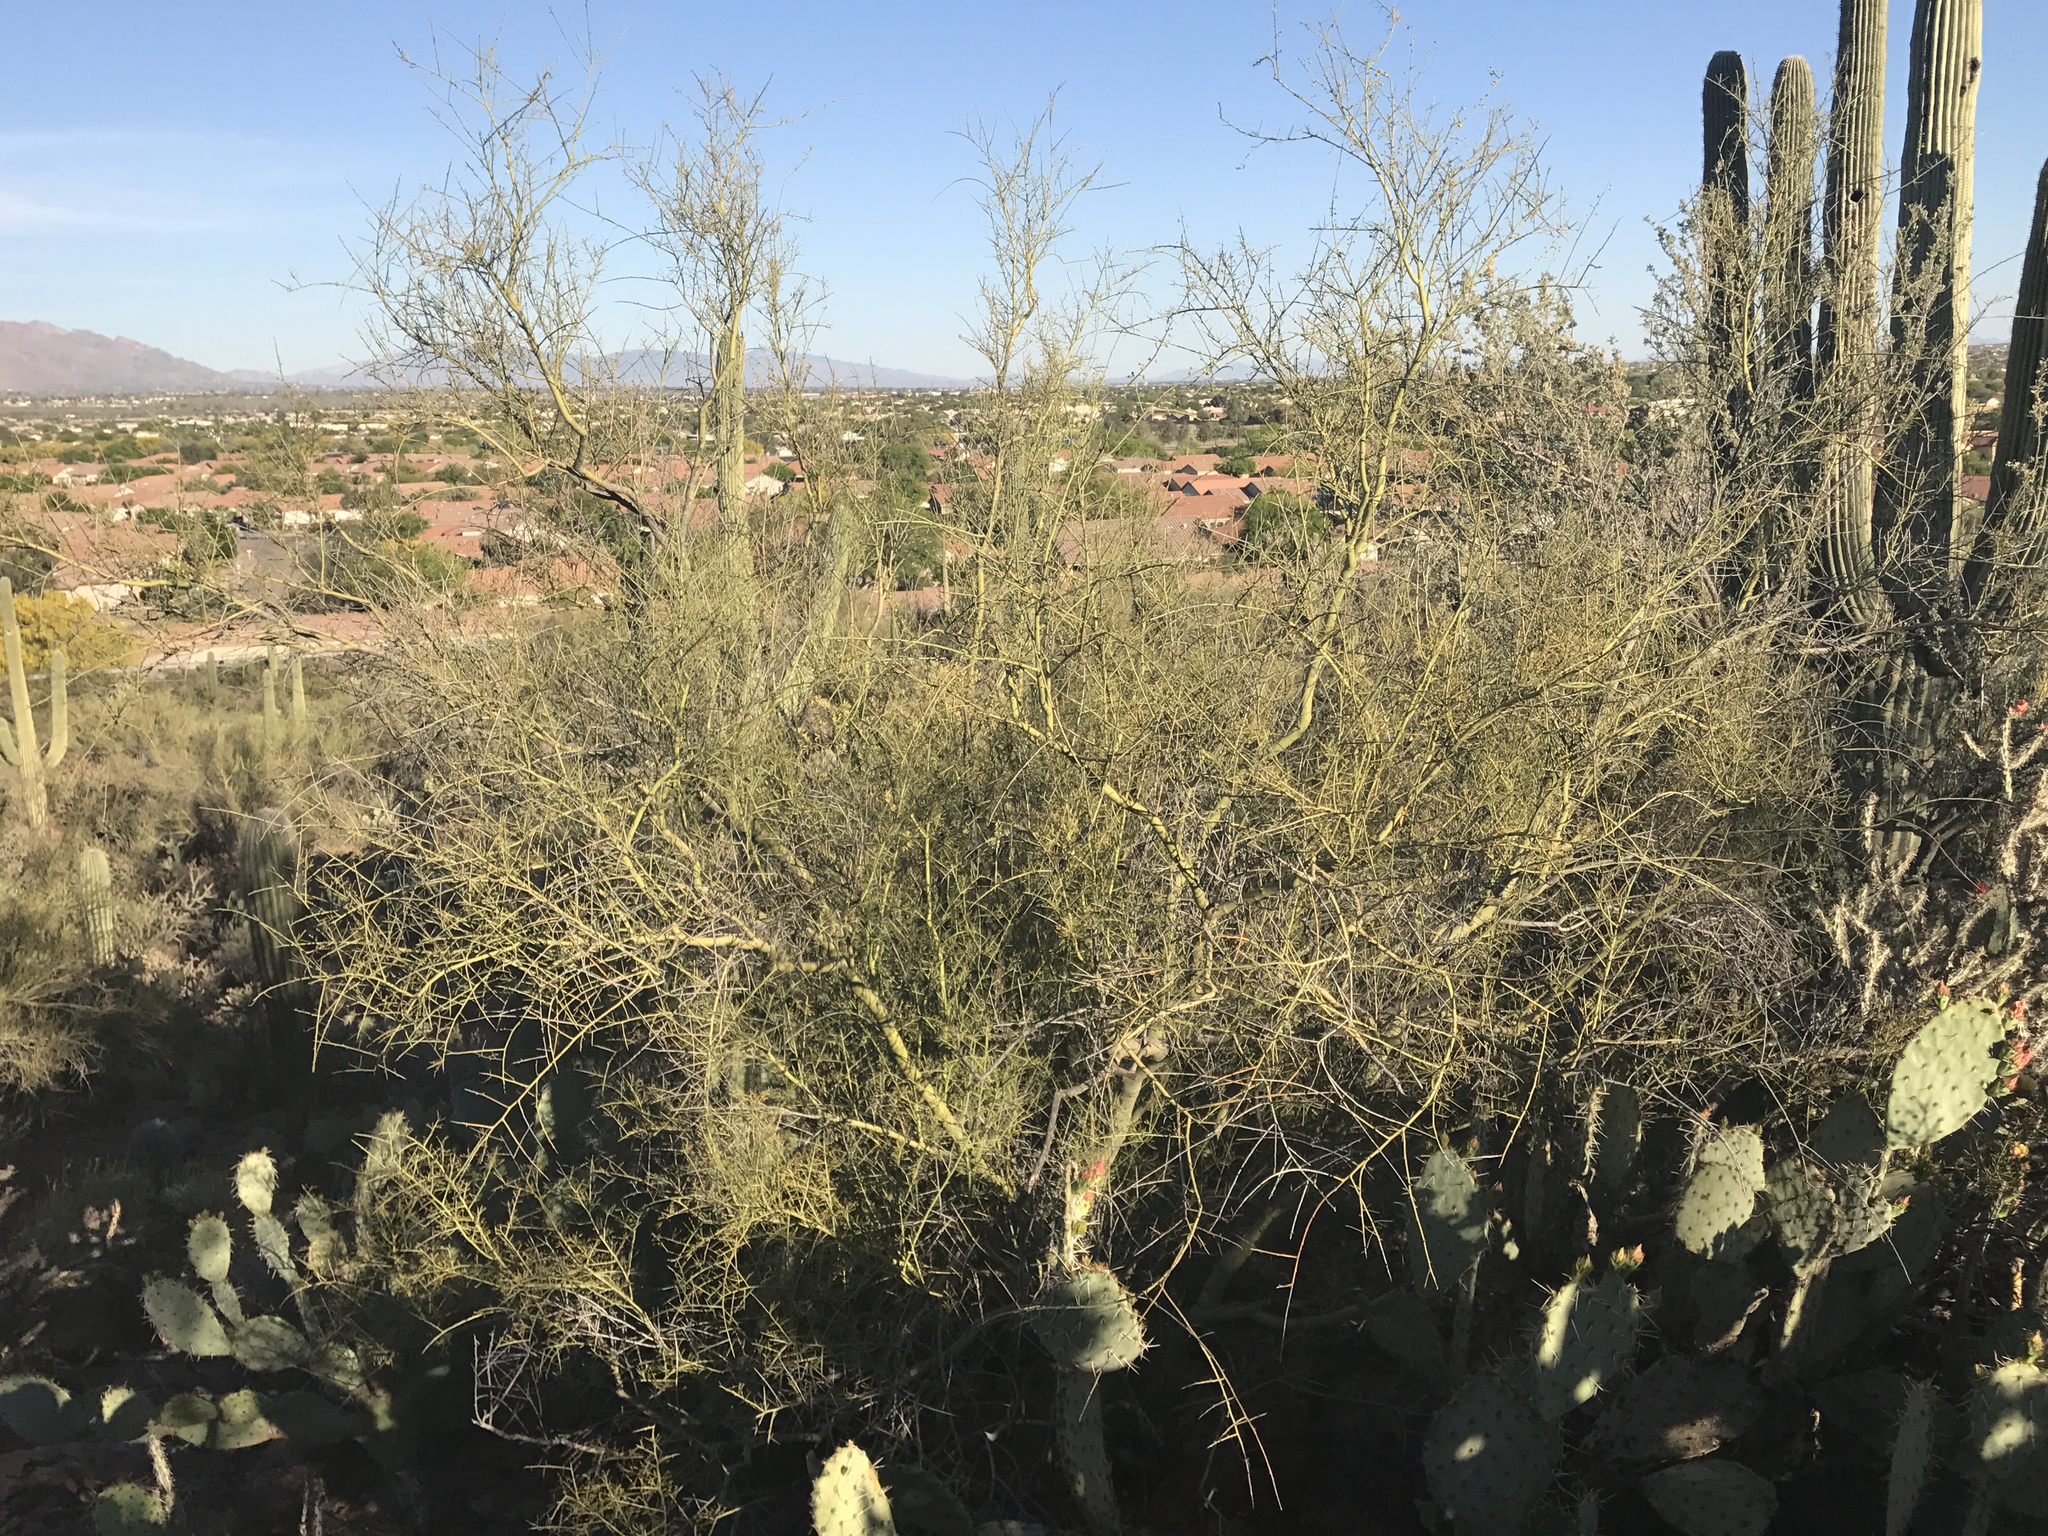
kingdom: Plantae
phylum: Tracheophyta
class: Magnoliopsida
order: Fabales
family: Fabaceae
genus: Parkinsonia
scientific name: Parkinsonia microphylla
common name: Yellow paloverde
